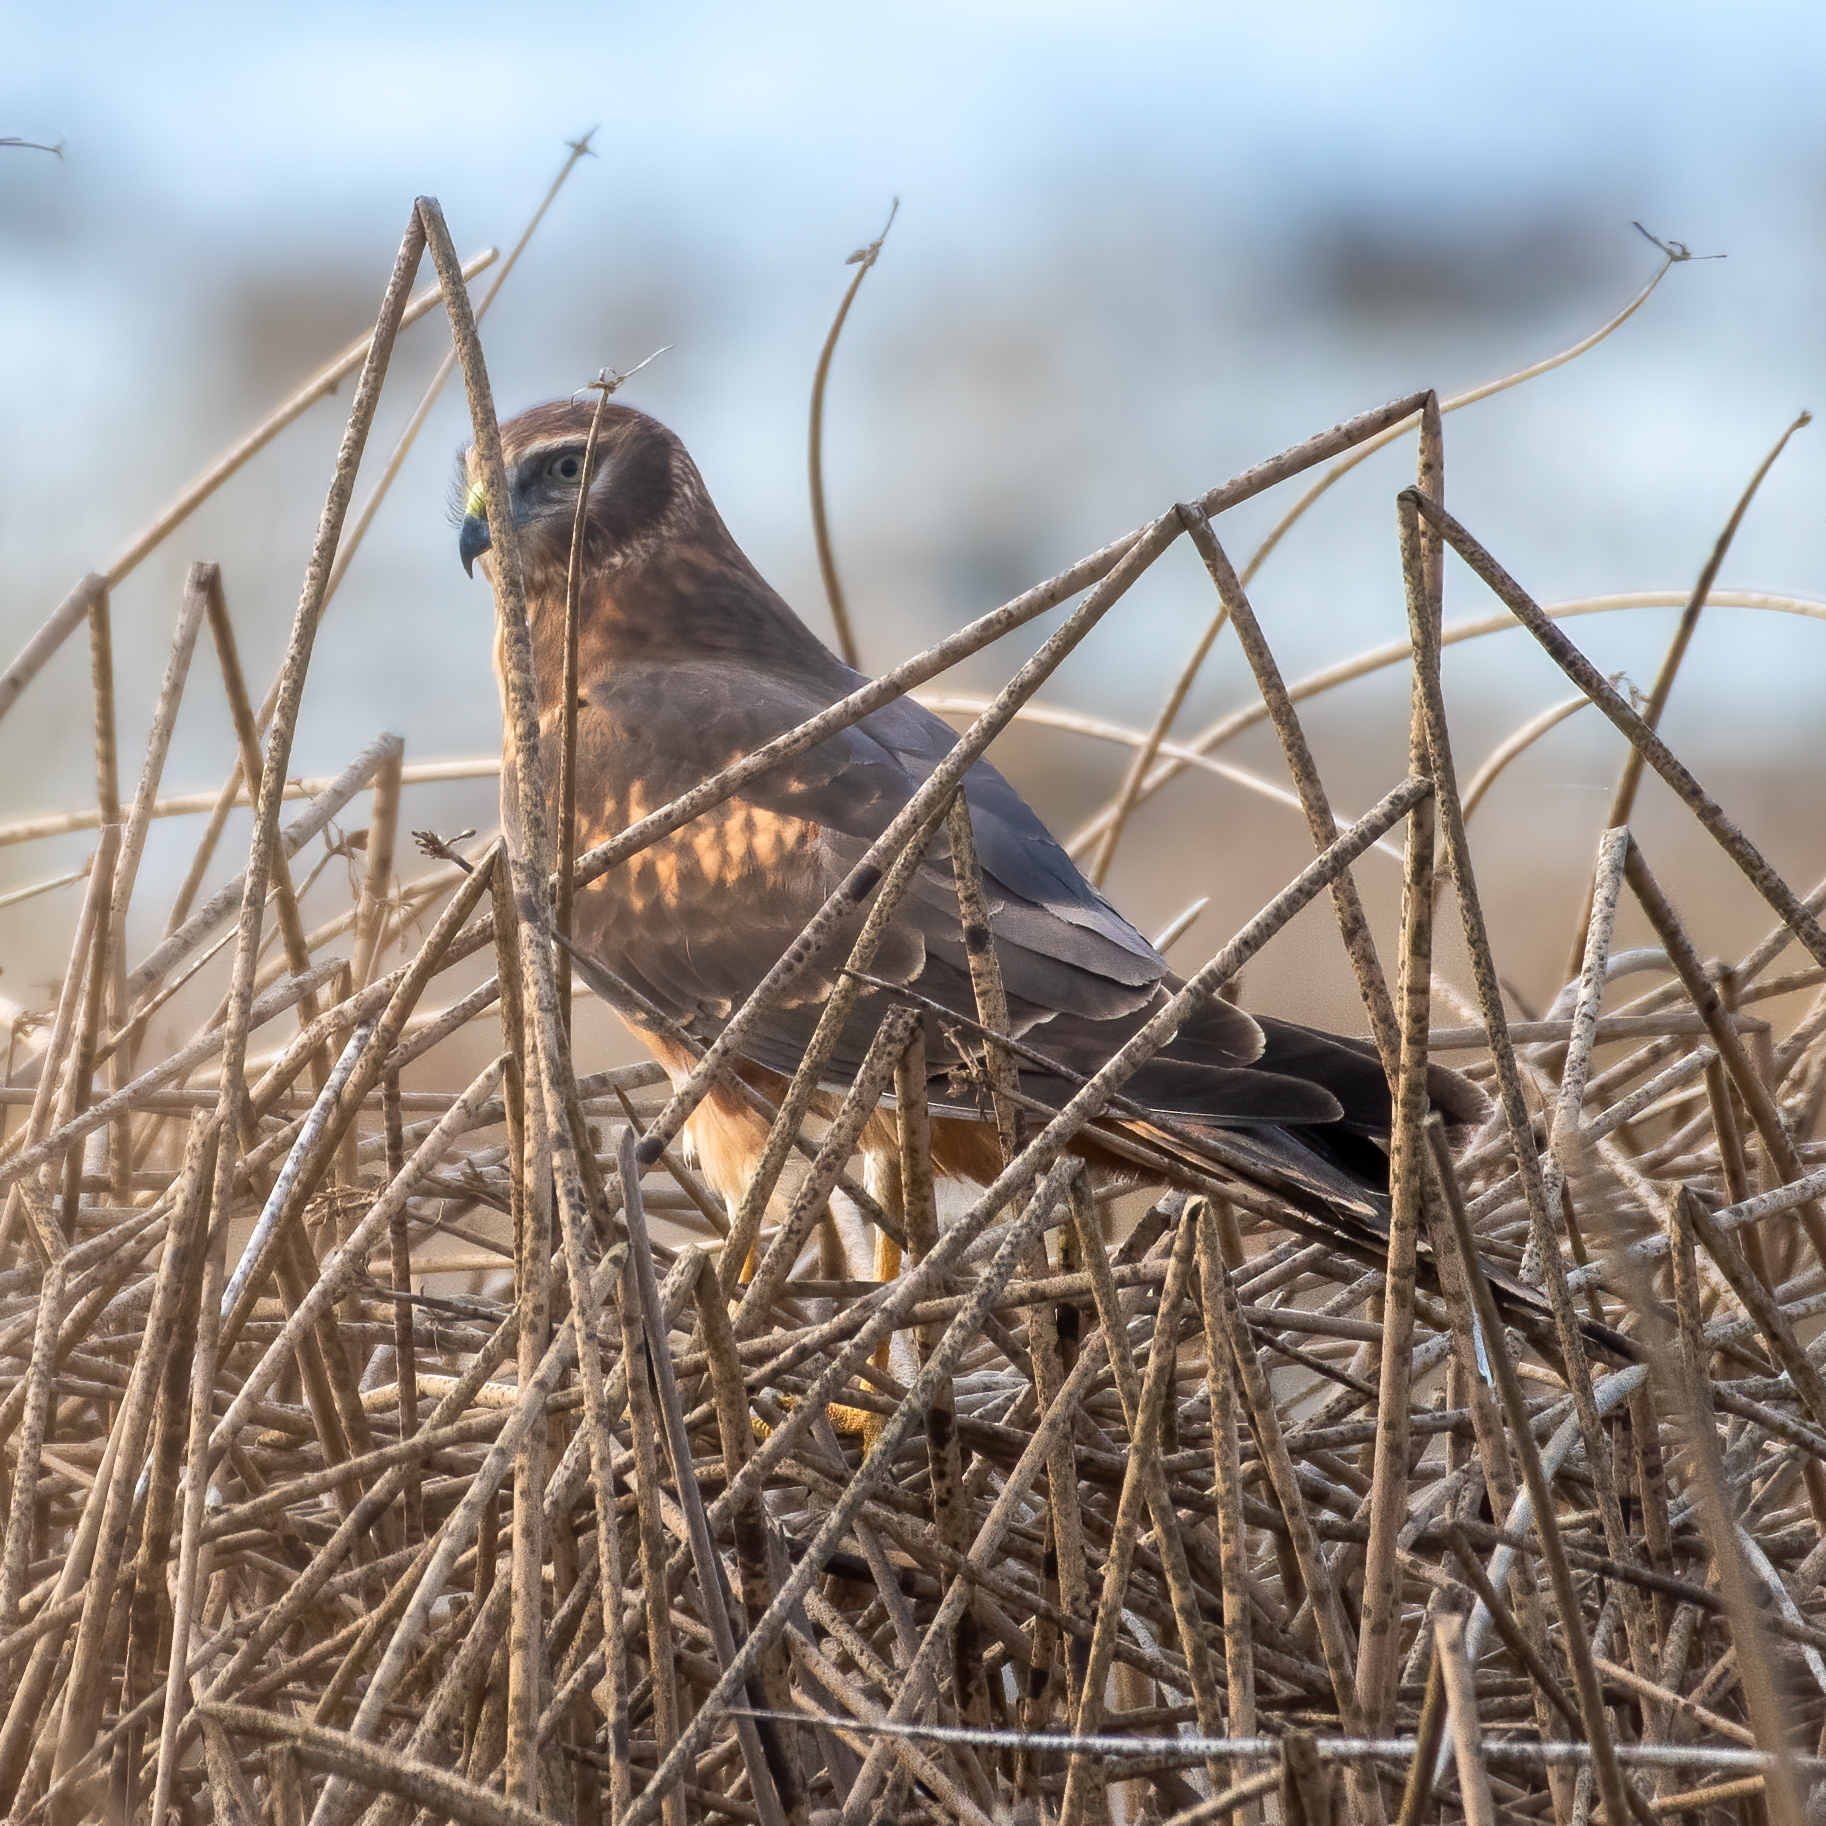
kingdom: Animalia
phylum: Chordata
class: Aves
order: Accipitriformes
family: Accipitridae
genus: Circus
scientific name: Circus cyaneus
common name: Hen harrier
